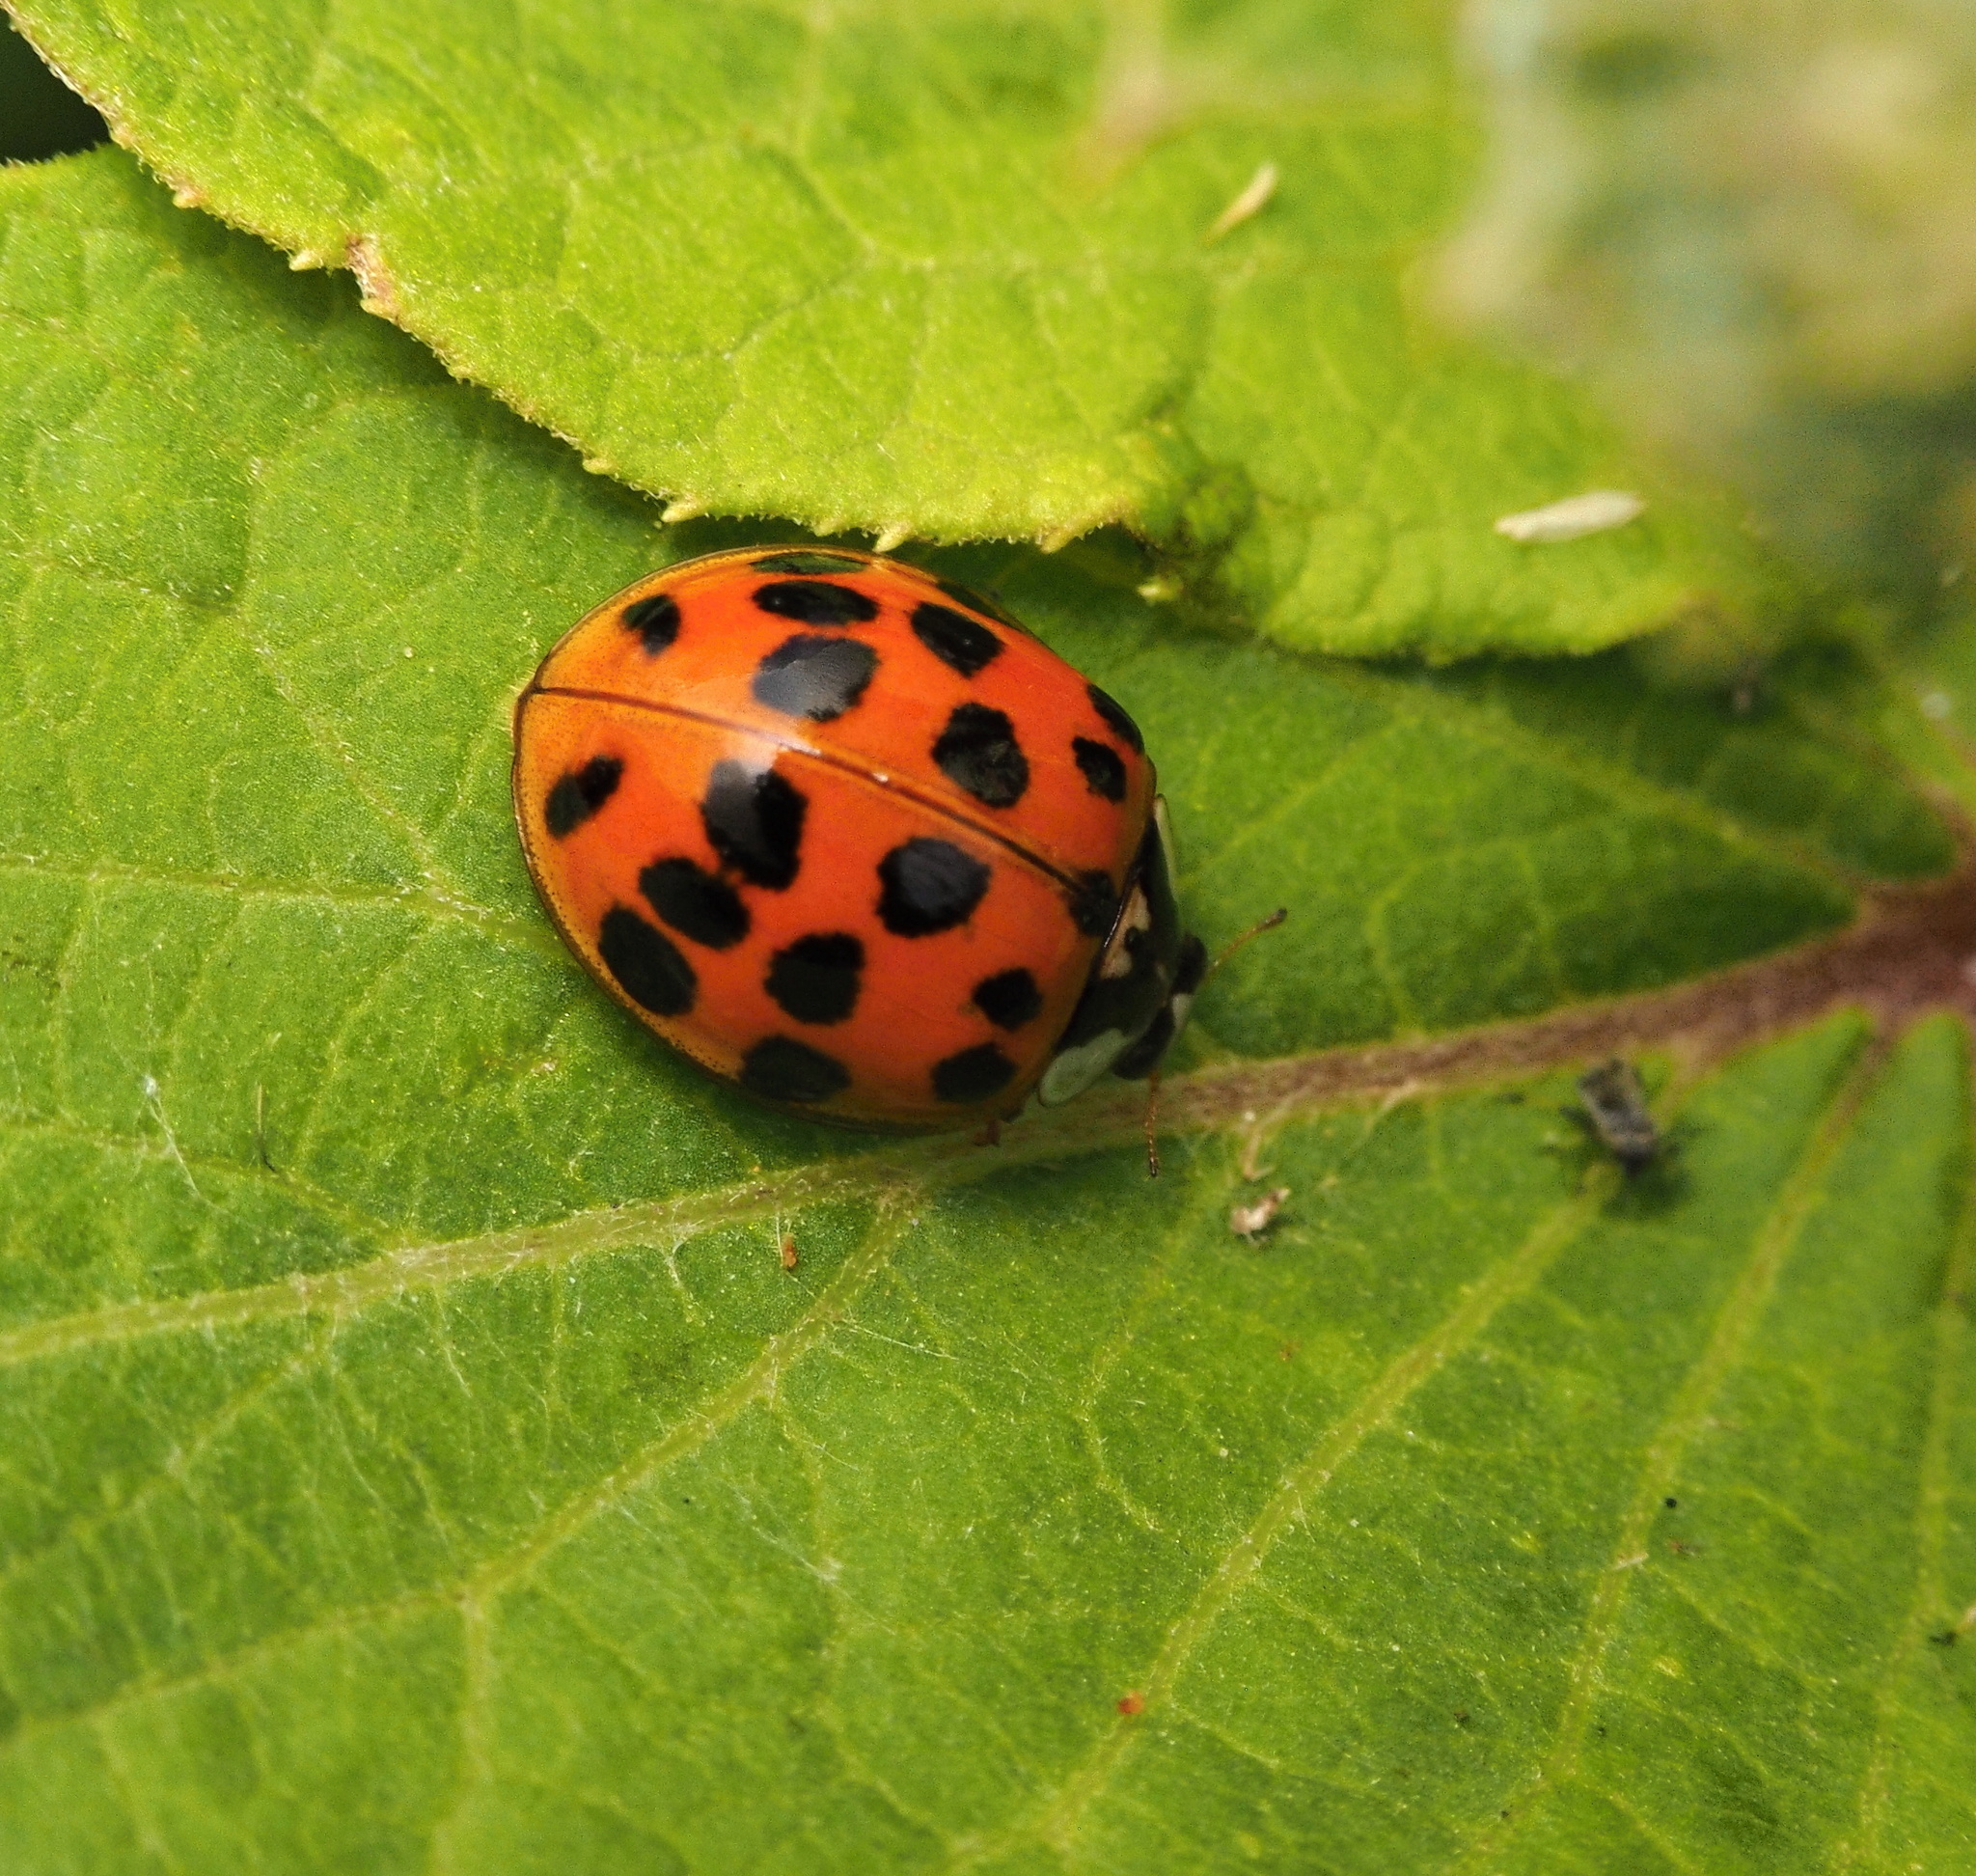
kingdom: Animalia
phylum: Arthropoda
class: Insecta
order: Coleoptera
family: Coccinellidae
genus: Harmonia
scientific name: Harmonia axyridis
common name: Harlequin ladybird
